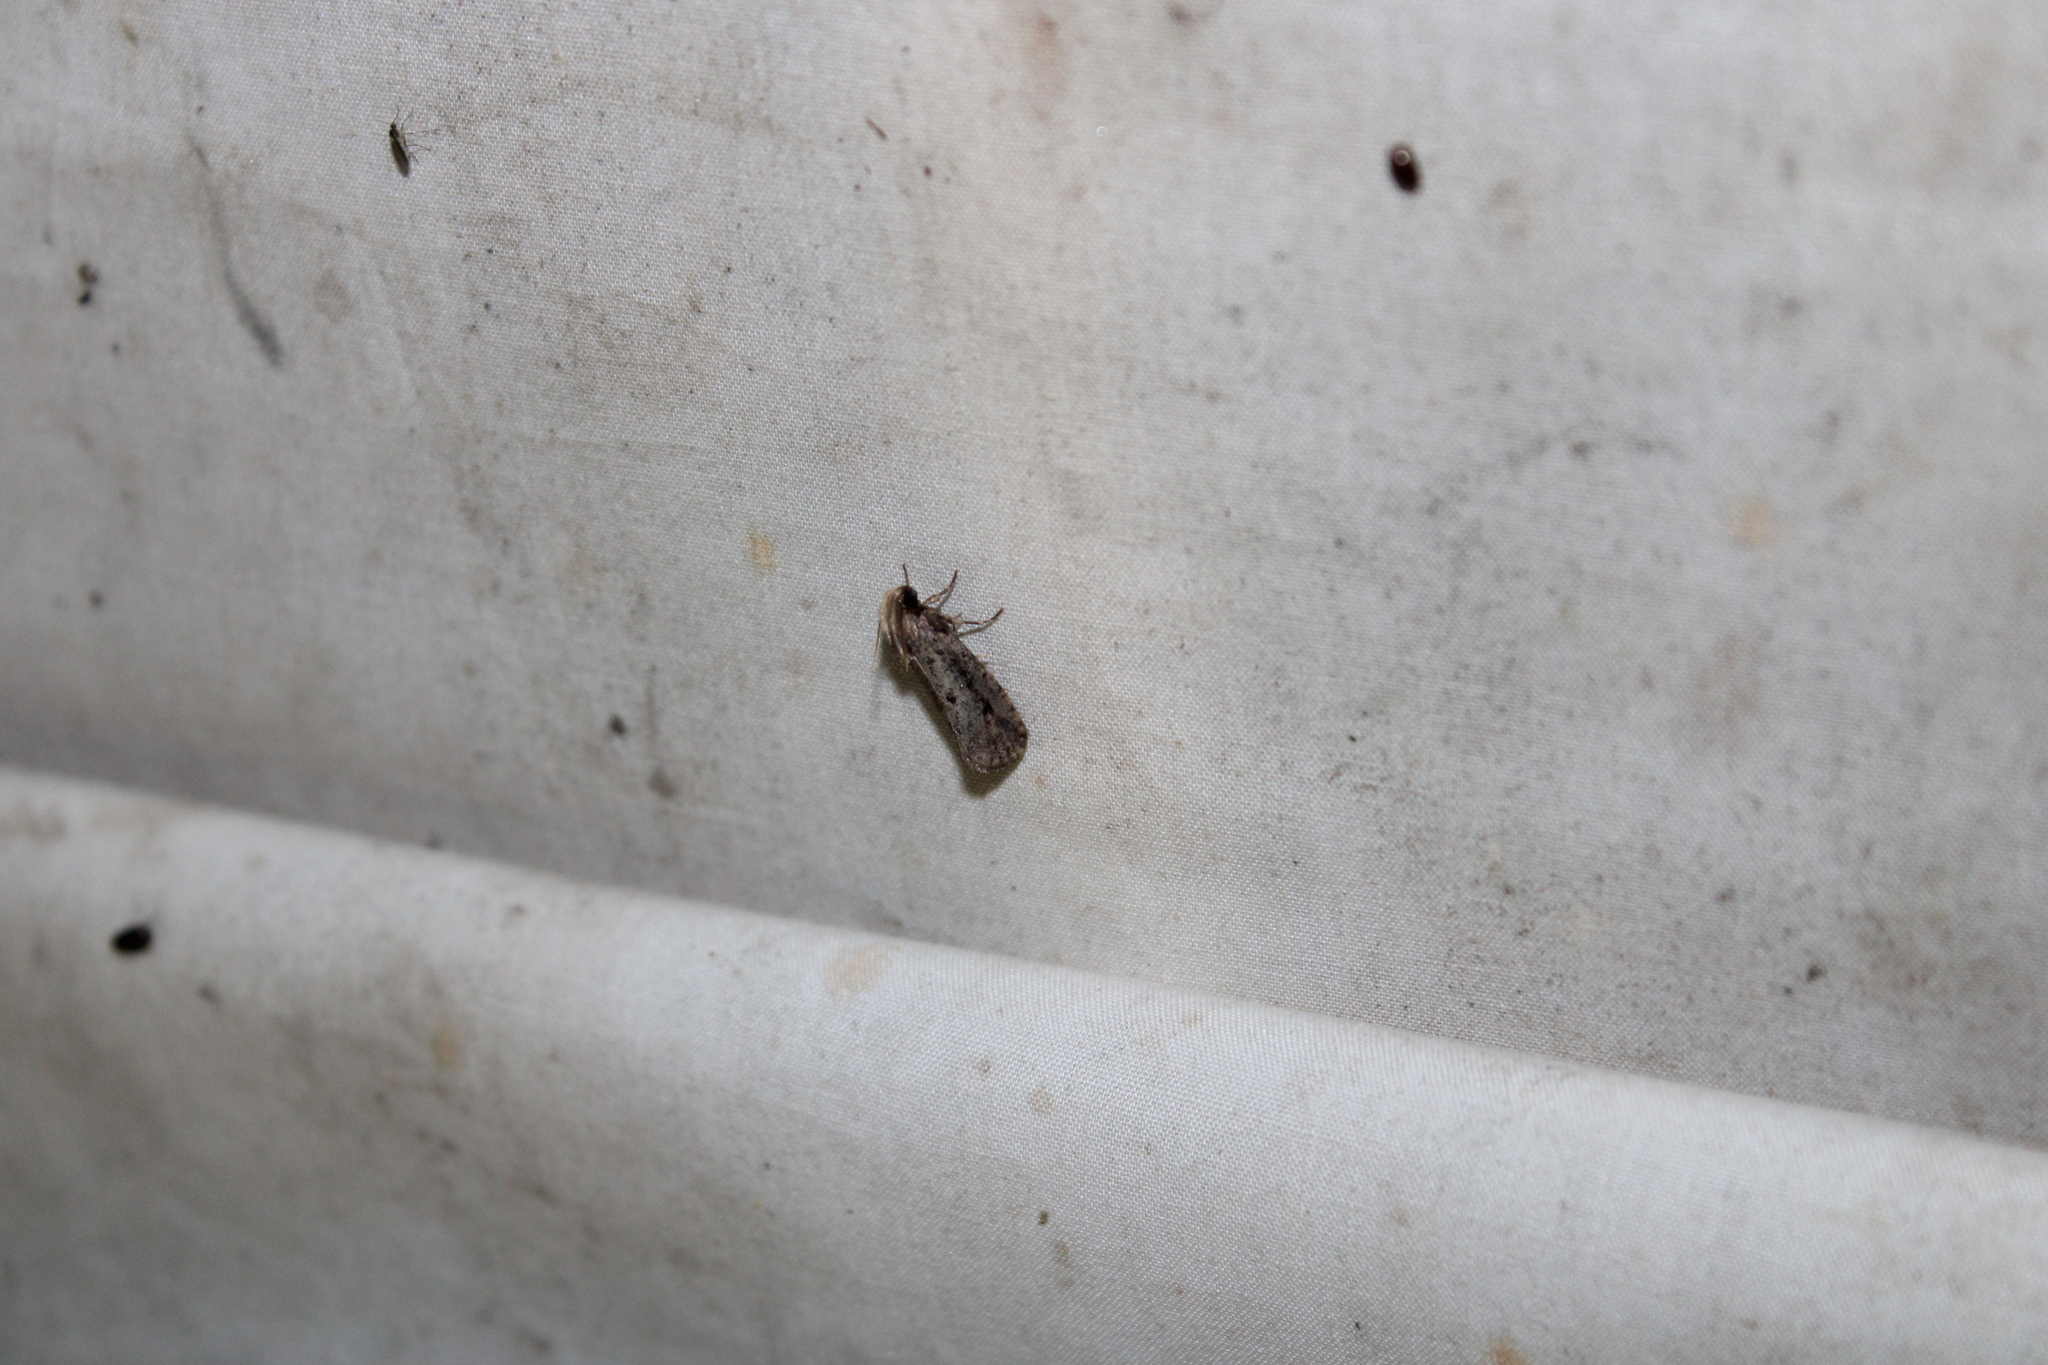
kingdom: Animalia
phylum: Arthropoda
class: Insecta
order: Lepidoptera
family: Tineidae
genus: Acrolophus
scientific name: Acrolophus popeanella
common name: Clemens' grass tubeworm moth
